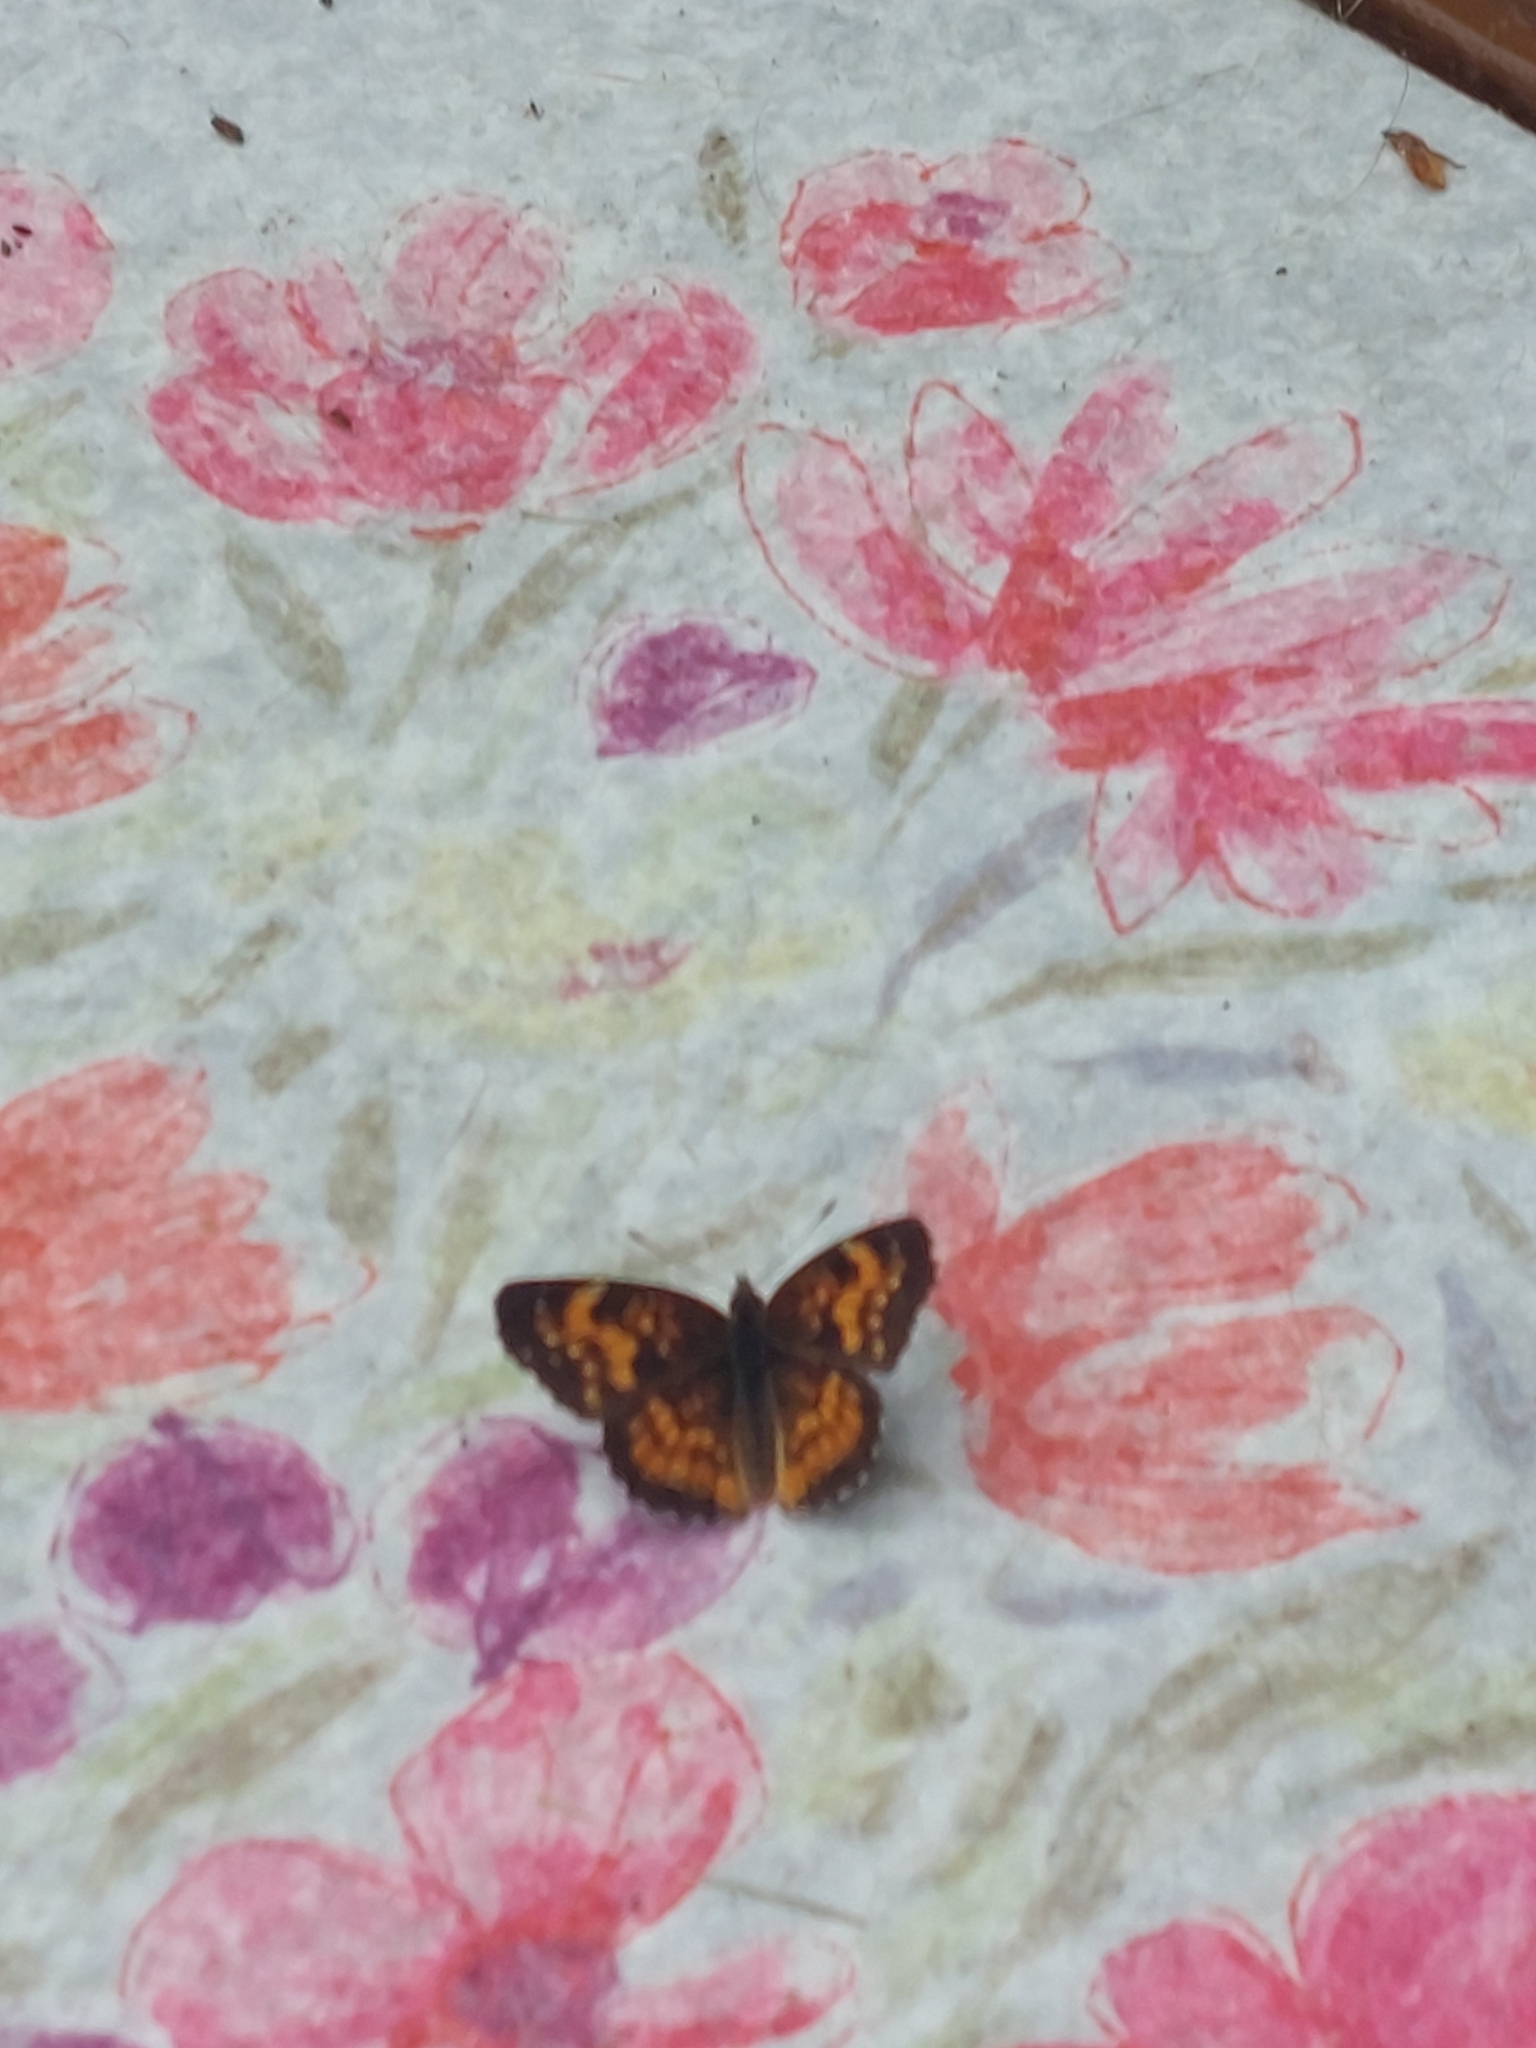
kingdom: Animalia
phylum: Arthropoda
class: Insecta
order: Lepidoptera
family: Nymphalidae
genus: Chlosyne
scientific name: Chlosyne harrisii
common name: Harris's checkerspot
